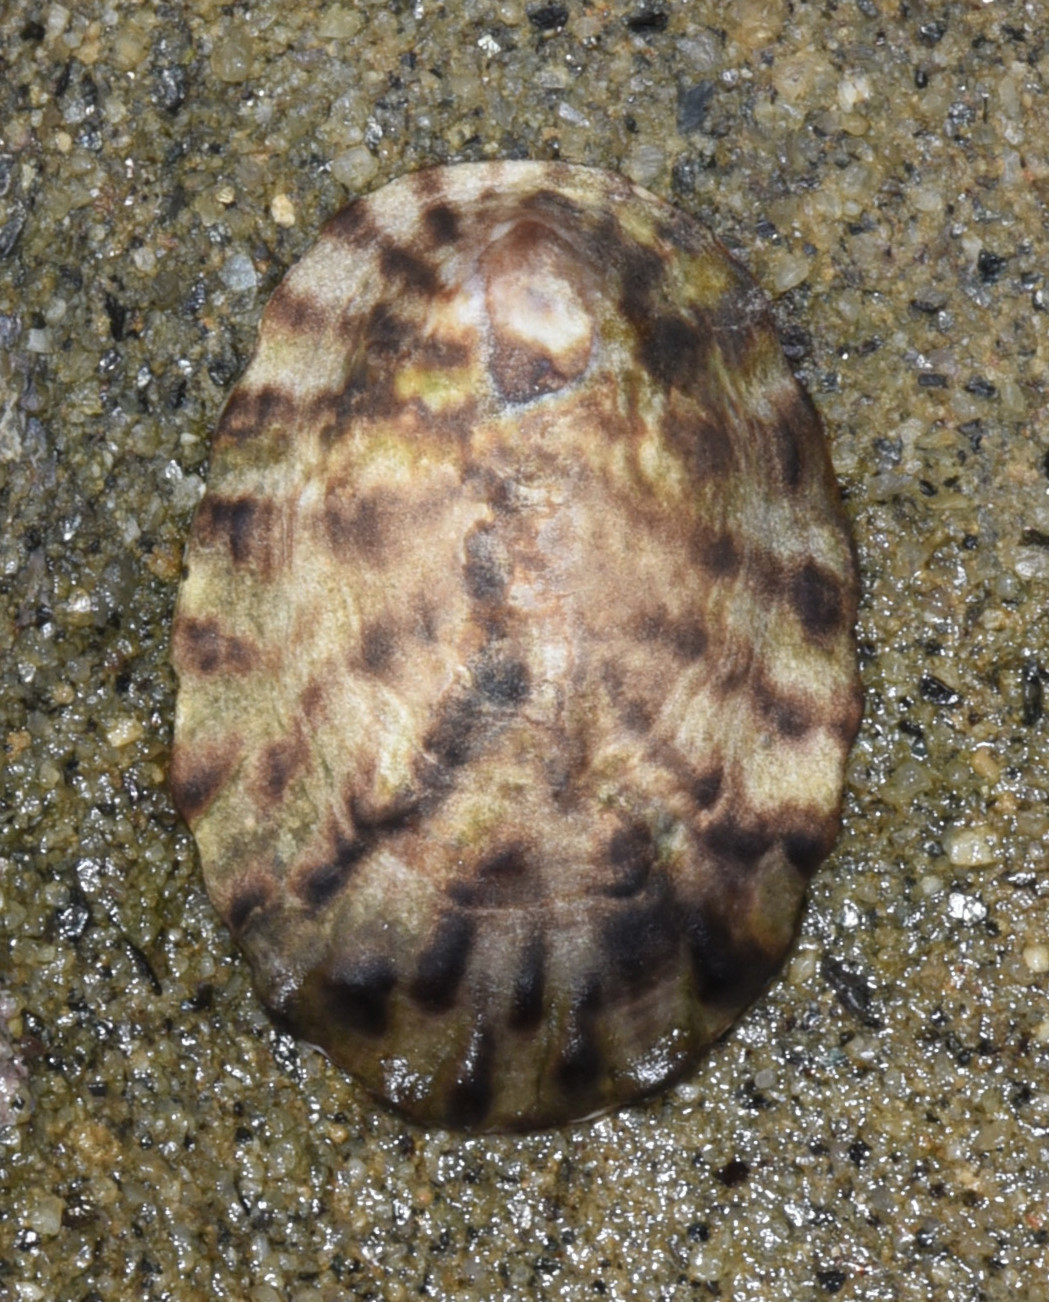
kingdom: Animalia
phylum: Mollusca
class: Gastropoda
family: Lottiidae
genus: Lottia
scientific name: Lottia gigantea
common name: Owl limpet
